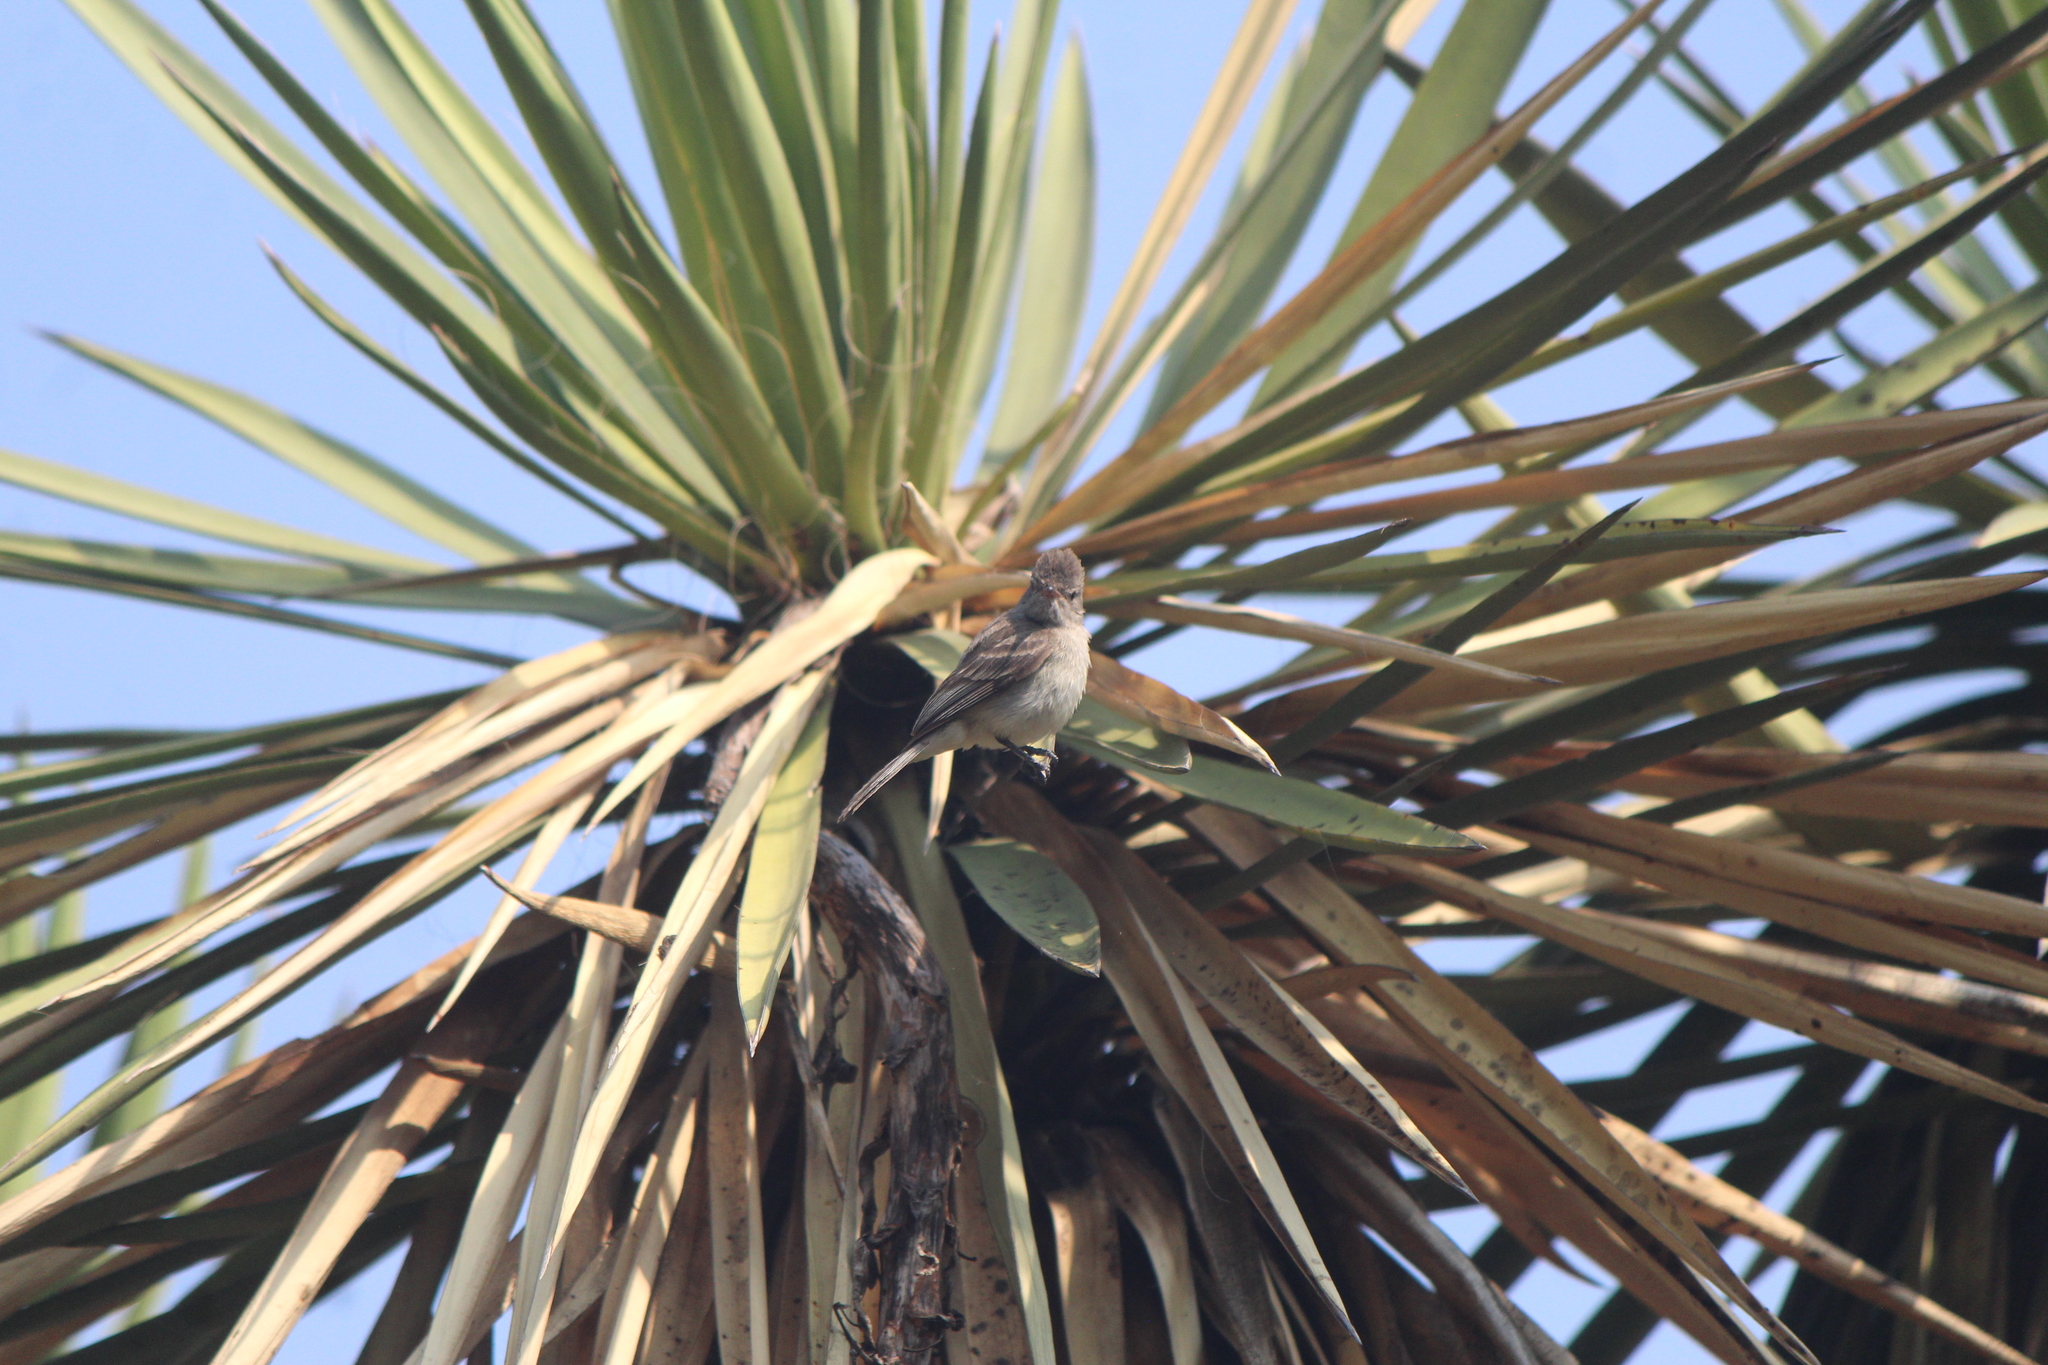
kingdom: Animalia
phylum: Chordata
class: Aves
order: Passeriformes
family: Tyrannidae
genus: Camptostoma
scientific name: Camptostoma imberbe
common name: Northern beardless-tyrannulet
